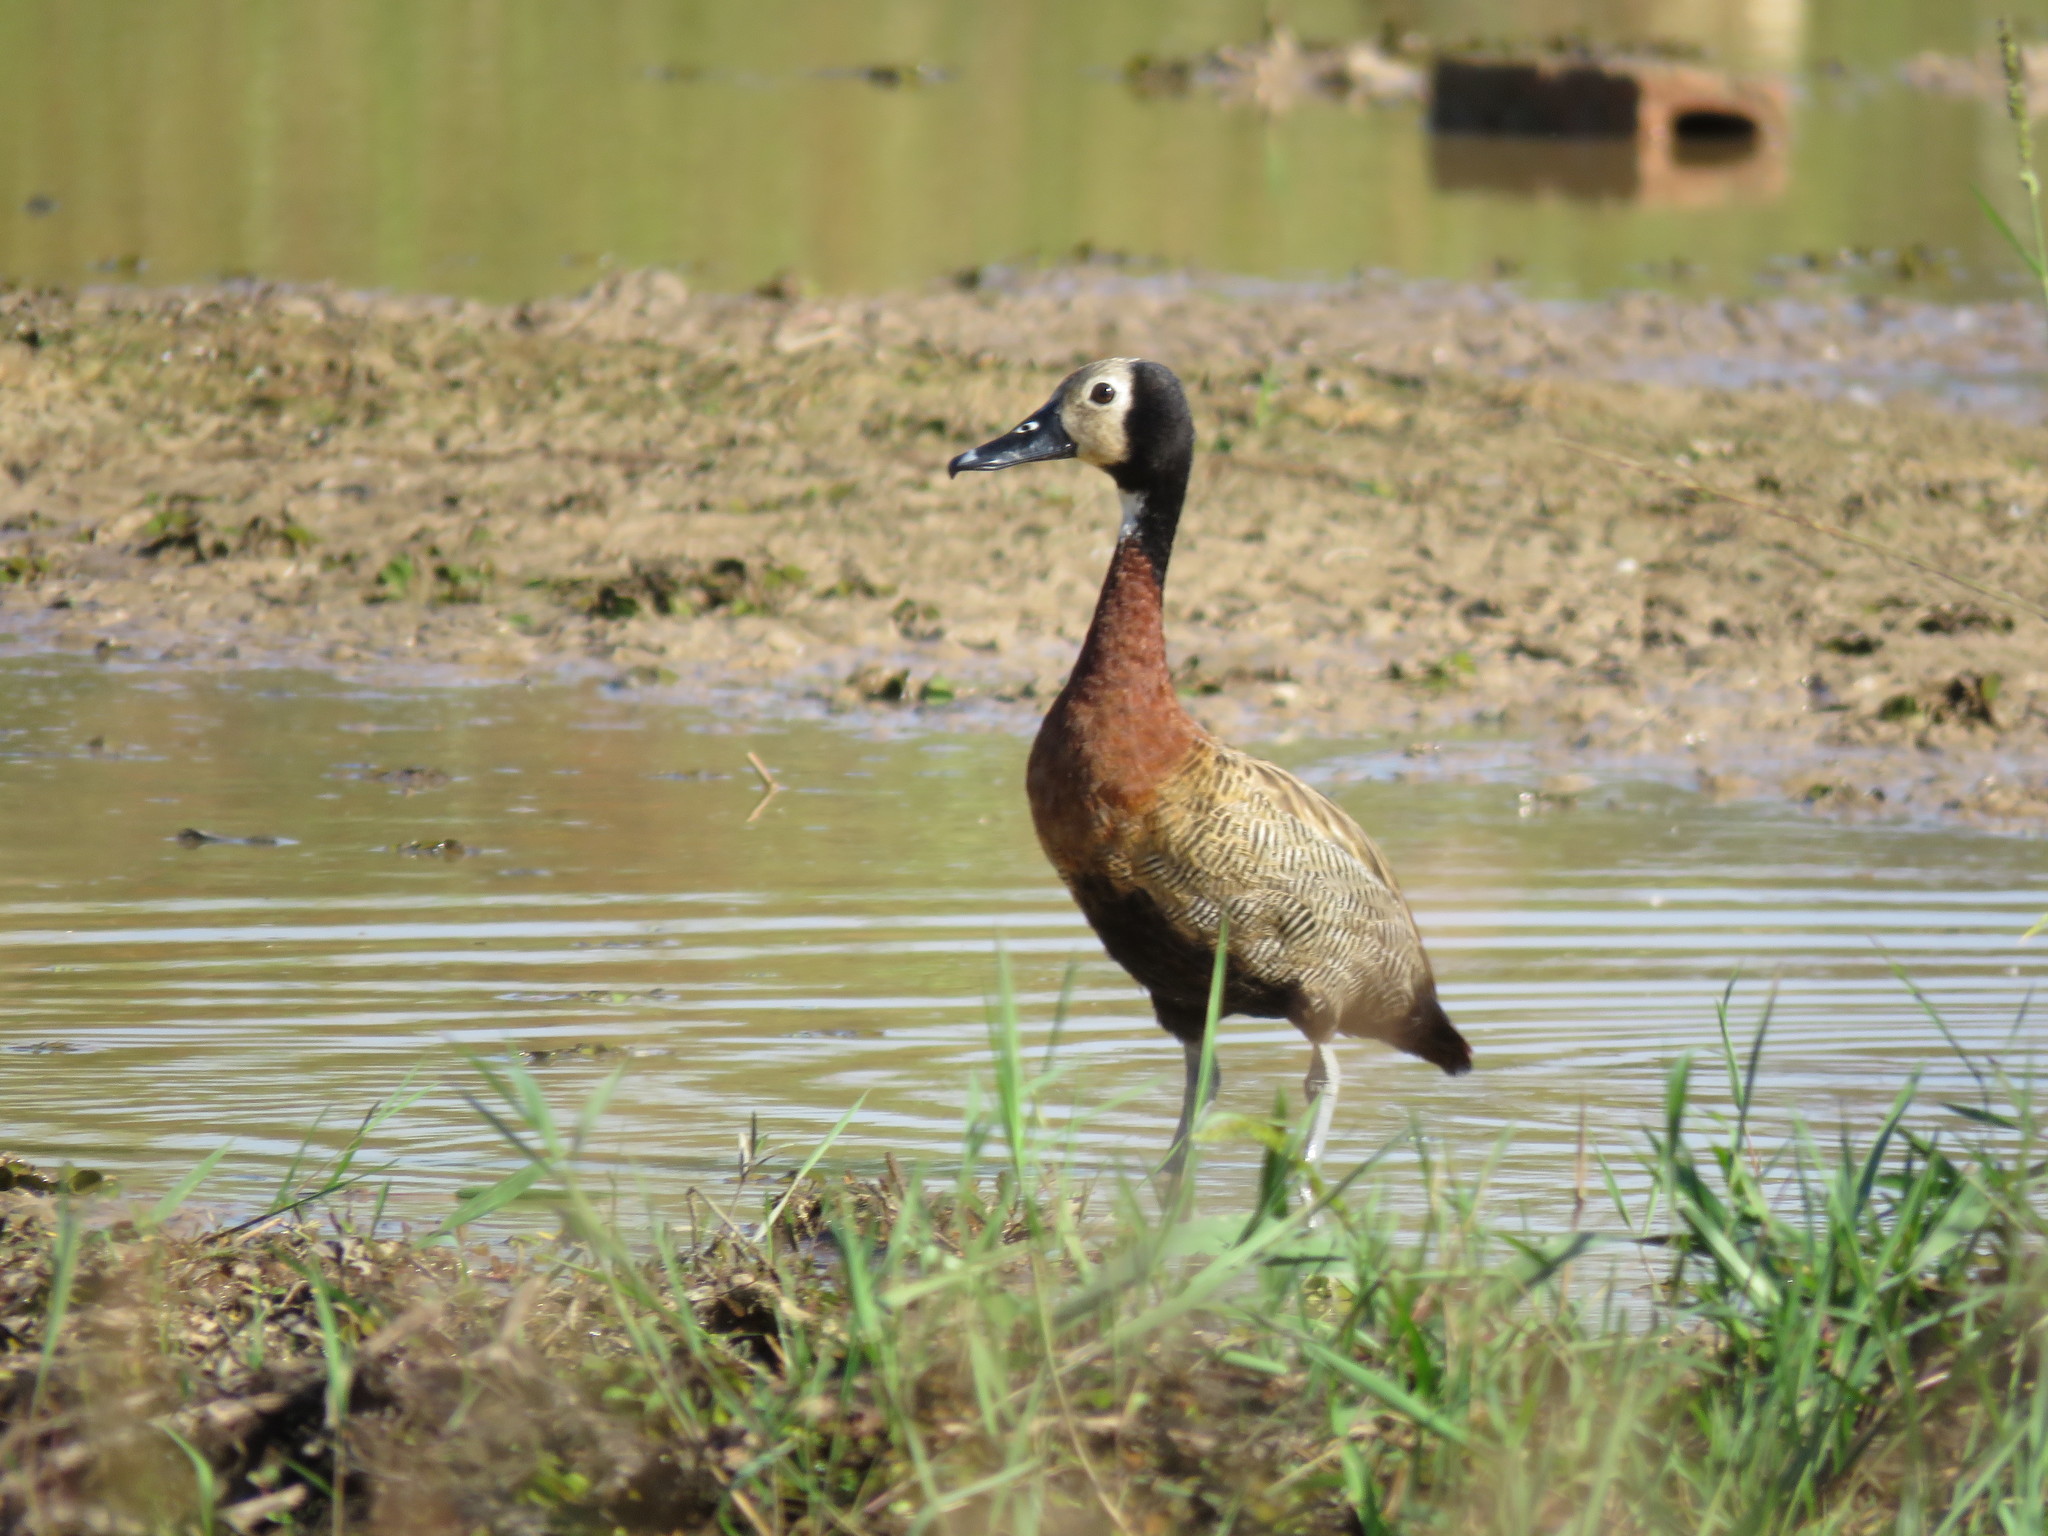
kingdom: Animalia
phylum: Chordata
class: Aves
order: Anseriformes
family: Anatidae
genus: Dendrocygna
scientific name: Dendrocygna viduata
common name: White-faced whistling duck
